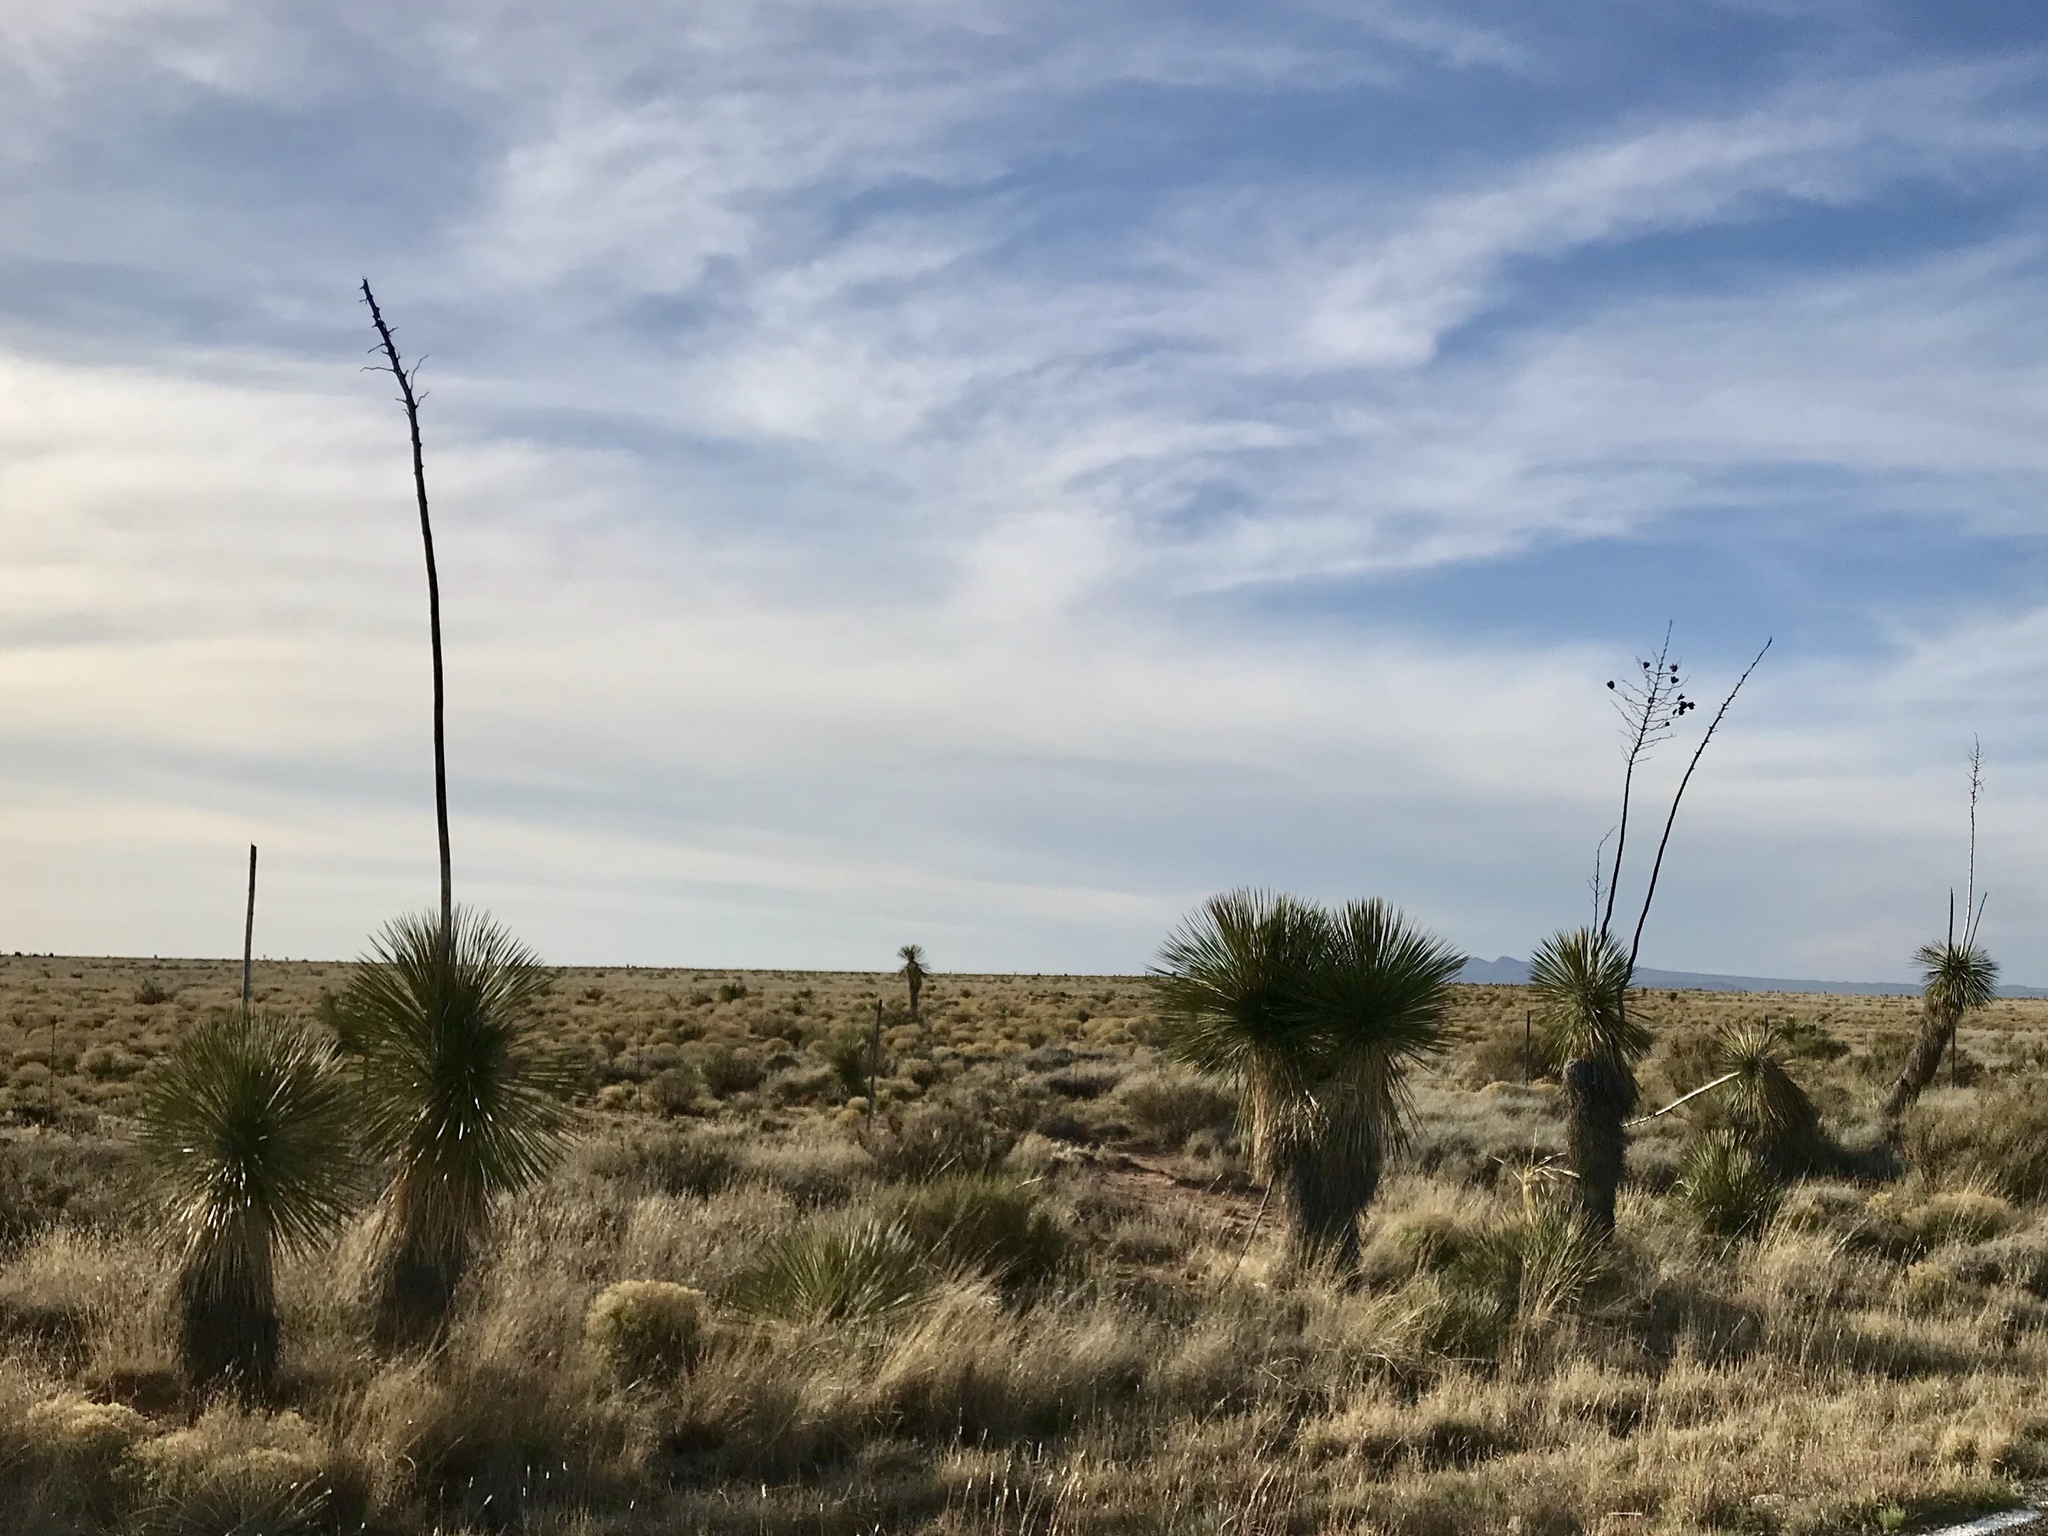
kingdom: Plantae
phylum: Tracheophyta
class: Liliopsida
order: Asparagales
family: Asparagaceae
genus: Yucca
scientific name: Yucca elata
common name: Palmella
